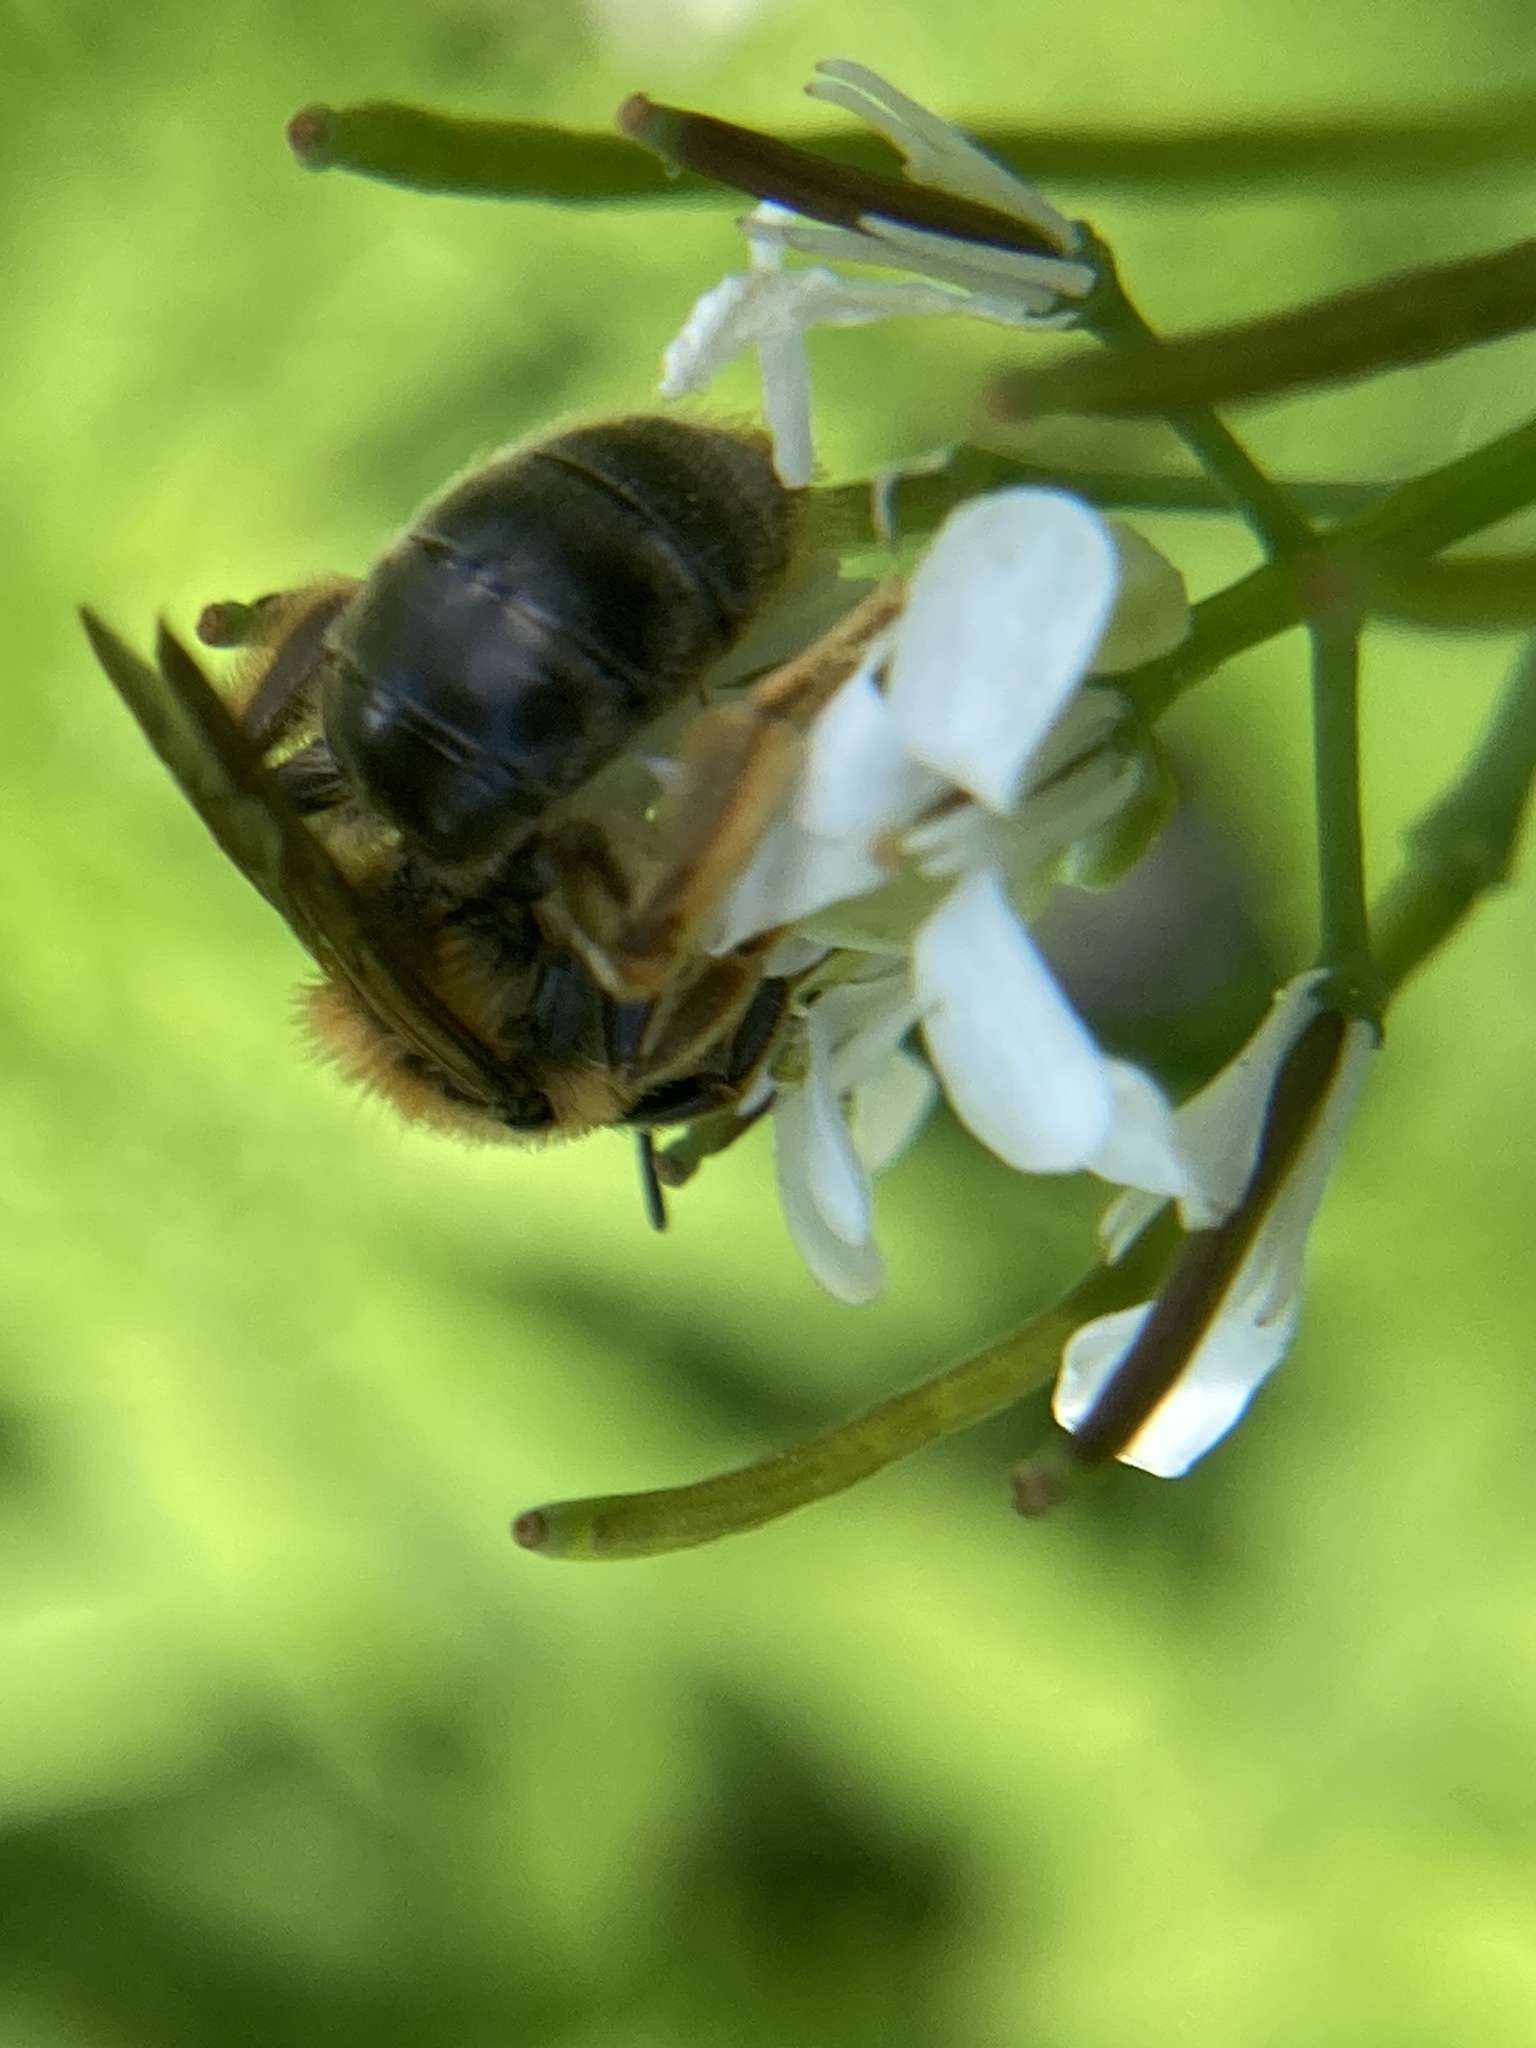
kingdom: Animalia
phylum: Arthropoda
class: Insecta
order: Hymenoptera
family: Andrenidae
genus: Andrena
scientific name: Andrena pruni
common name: Cherry mining bee
